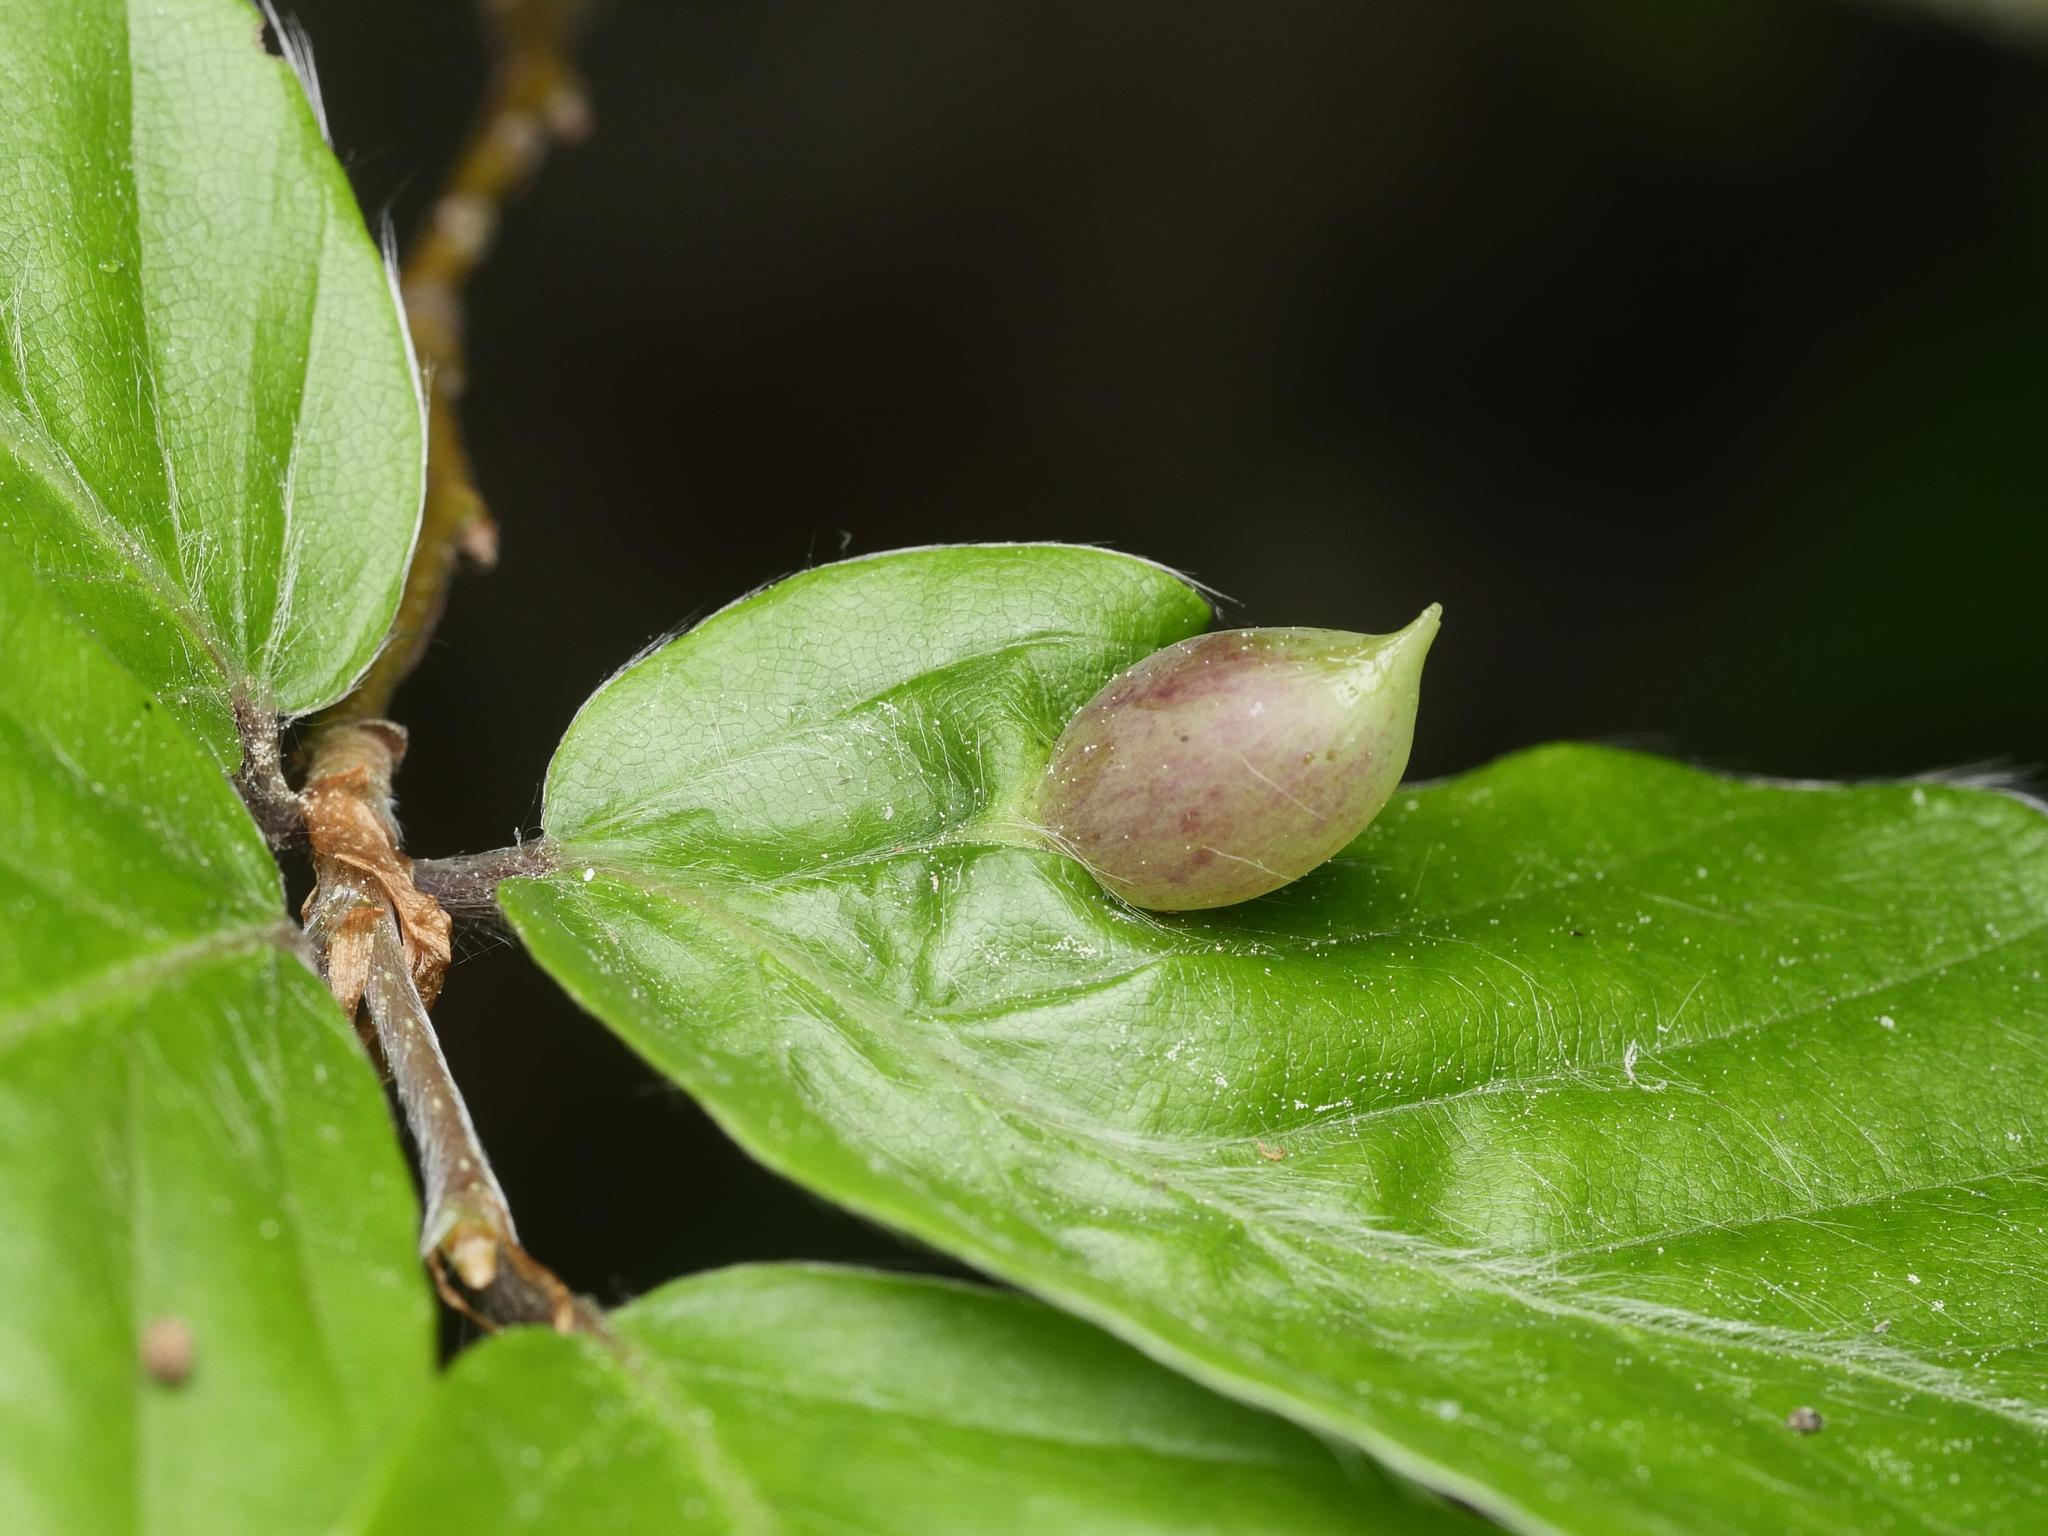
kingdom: Animalia
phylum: Arthropoda
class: Insecta
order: Diptera
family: Cecidomyiidae
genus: Mikiola
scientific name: Mikiola fagi
